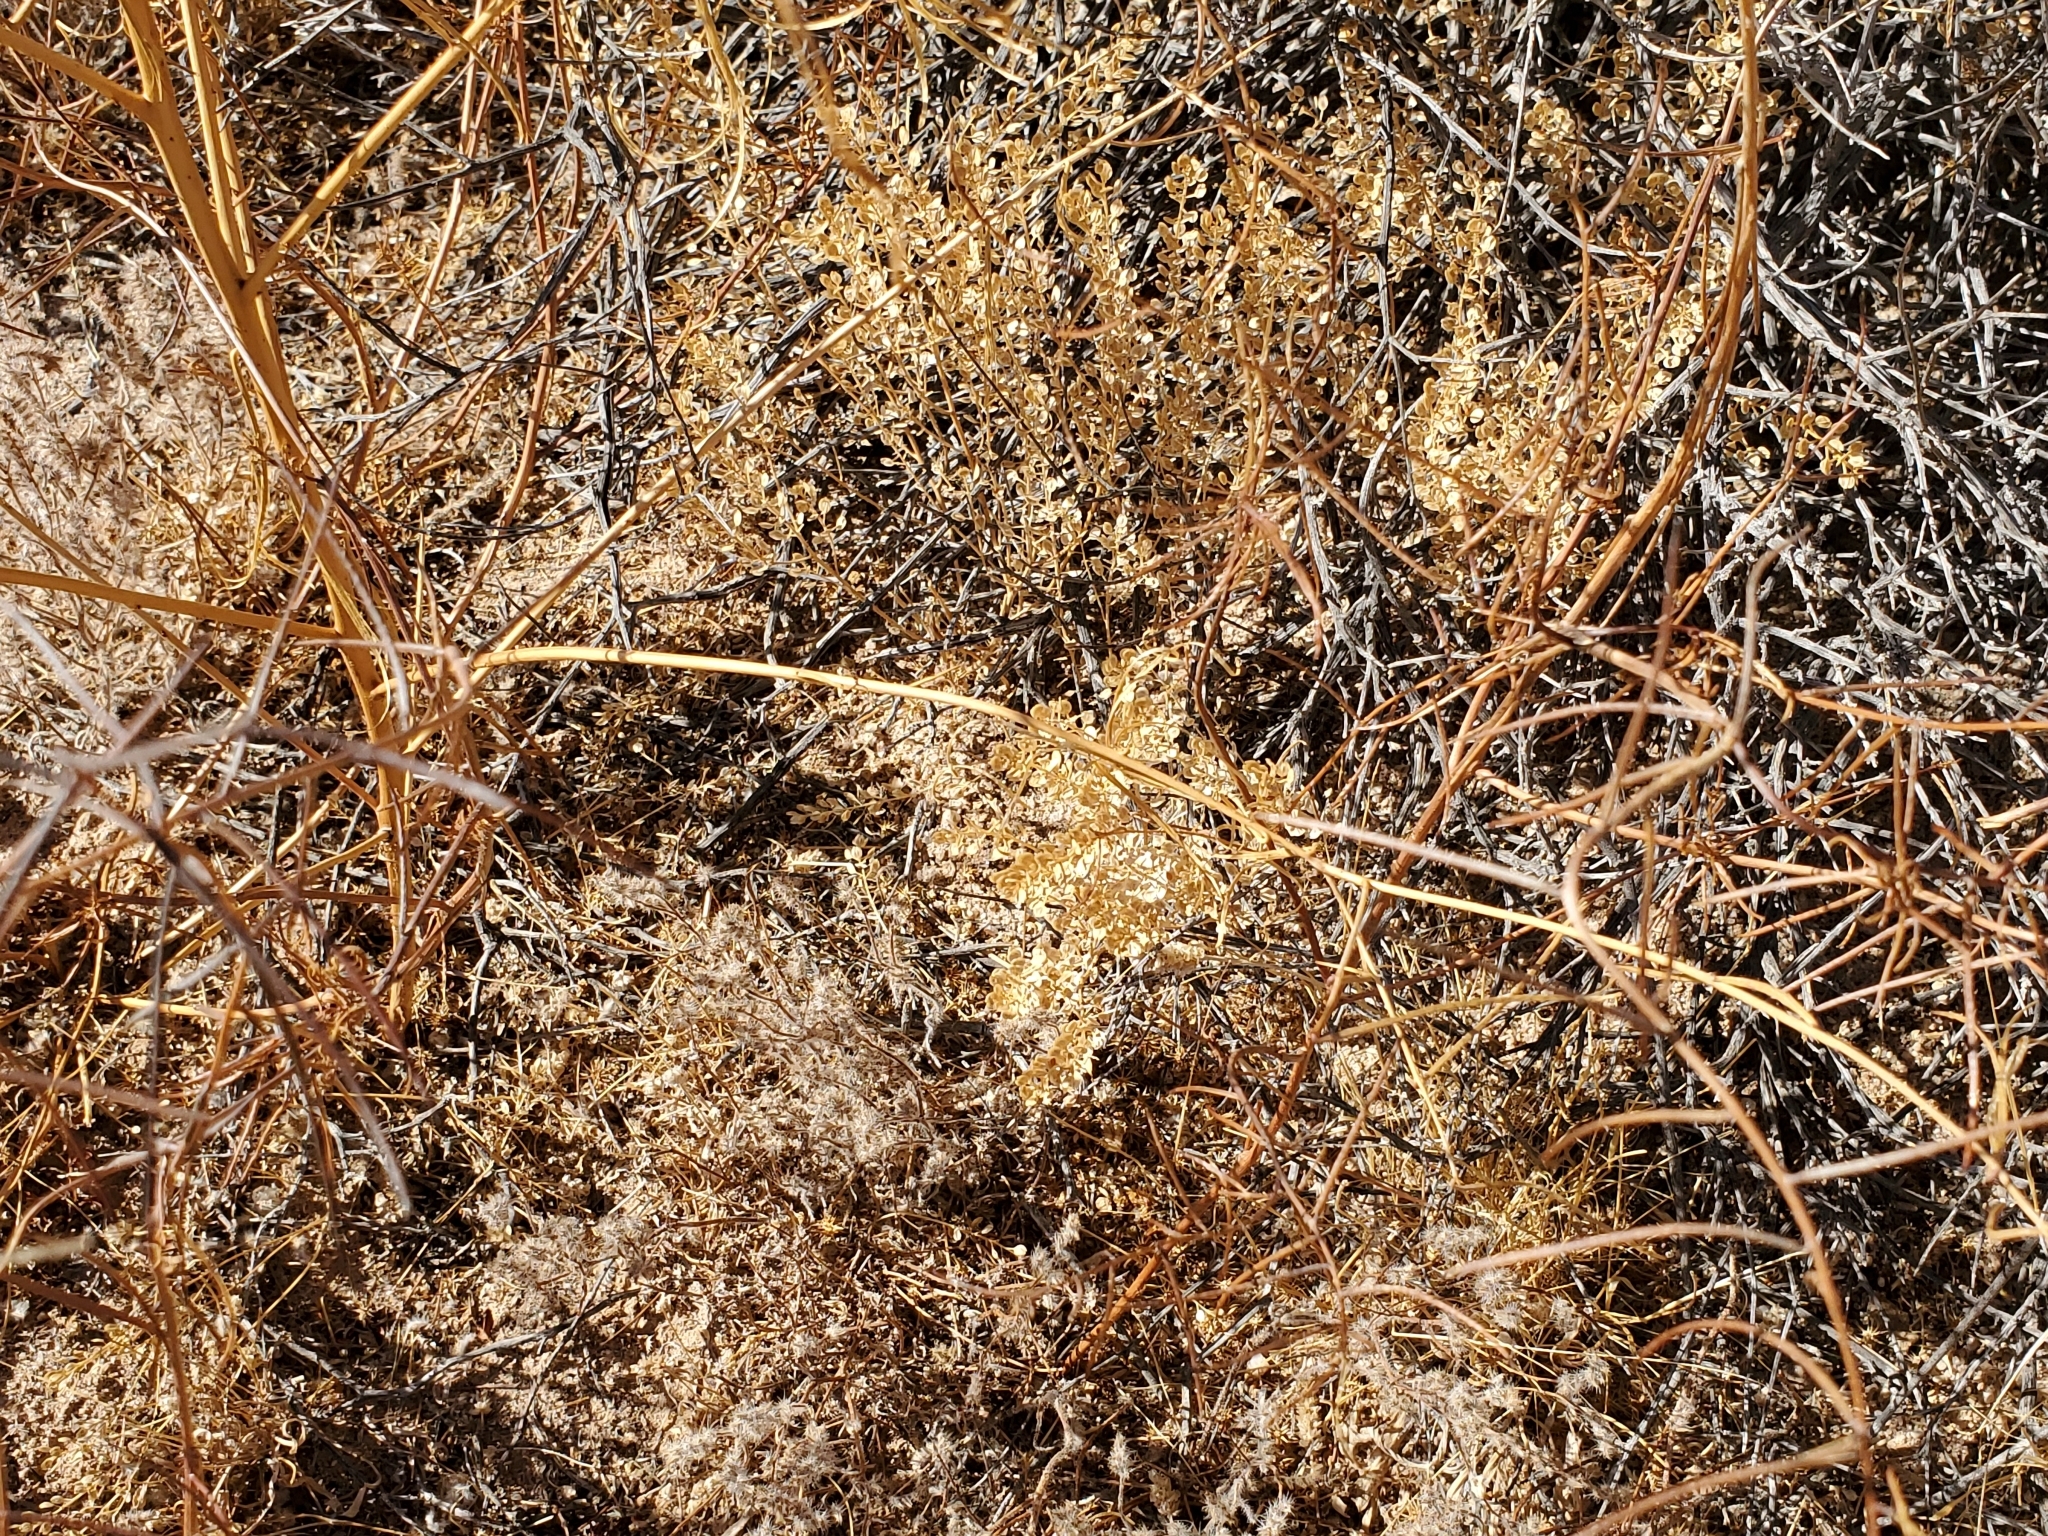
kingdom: Plantae
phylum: Tracheophyta
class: Magnoliopsida
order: Brassicales
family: Brassicaceae
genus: Lepidium
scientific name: Lepidium
